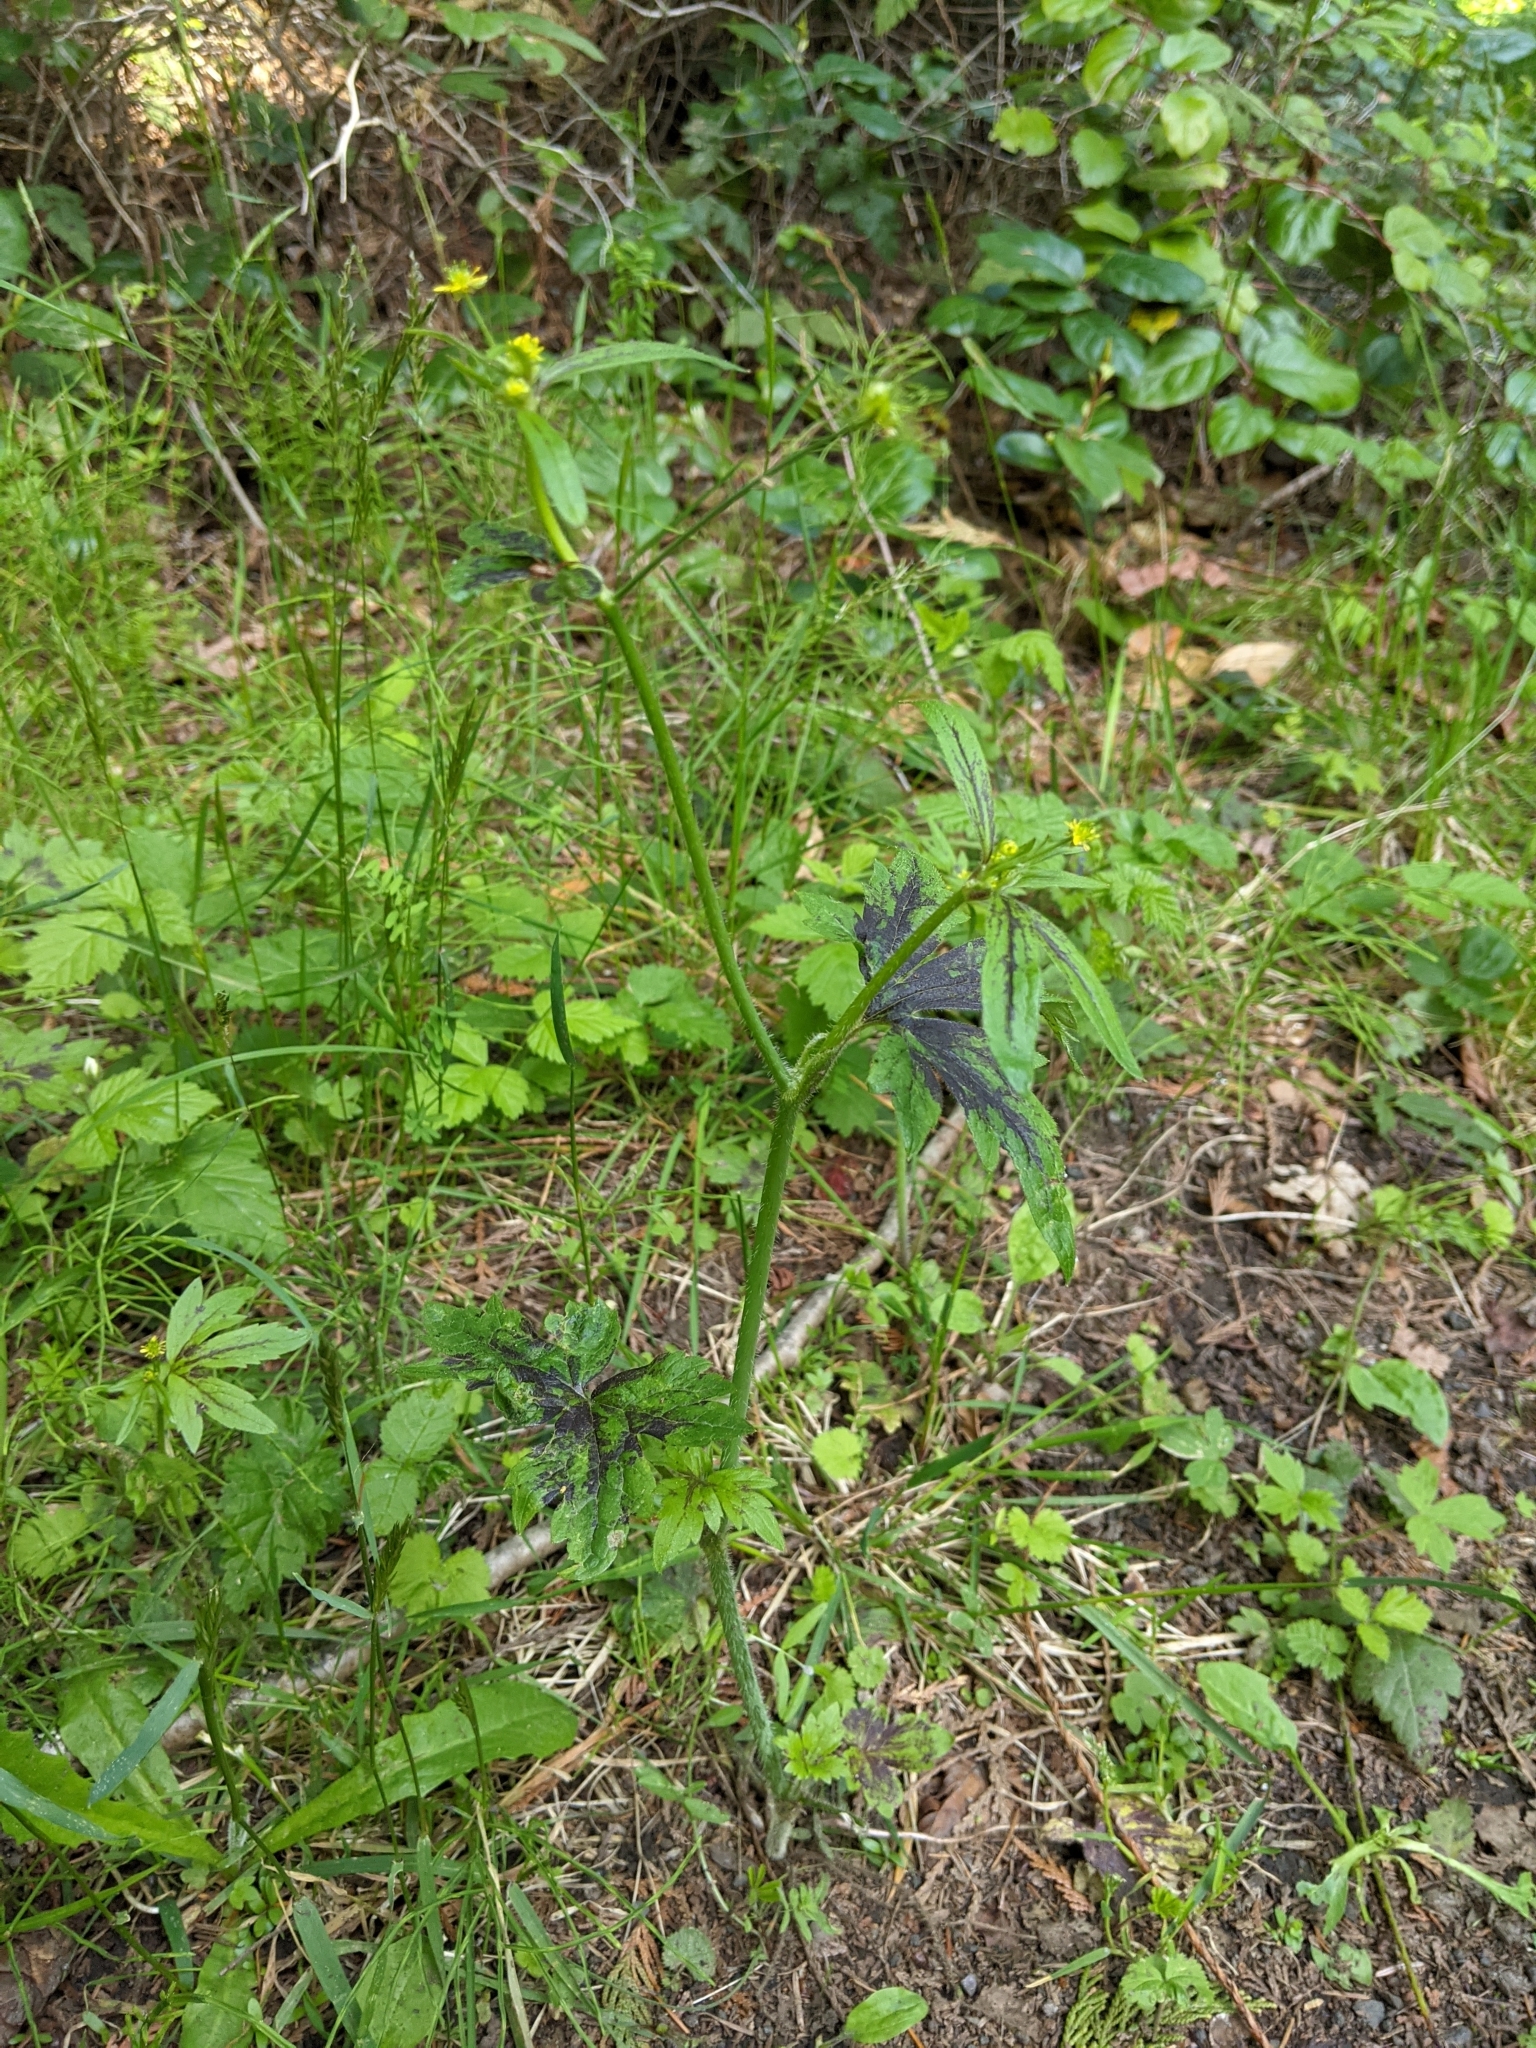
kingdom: Plantae
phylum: Tracheophyta
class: Magnoliopsida
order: Ranunculales
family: Ranunculaceae
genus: Ranunculus
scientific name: Ranunculus uncinatus
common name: Little buttercup
